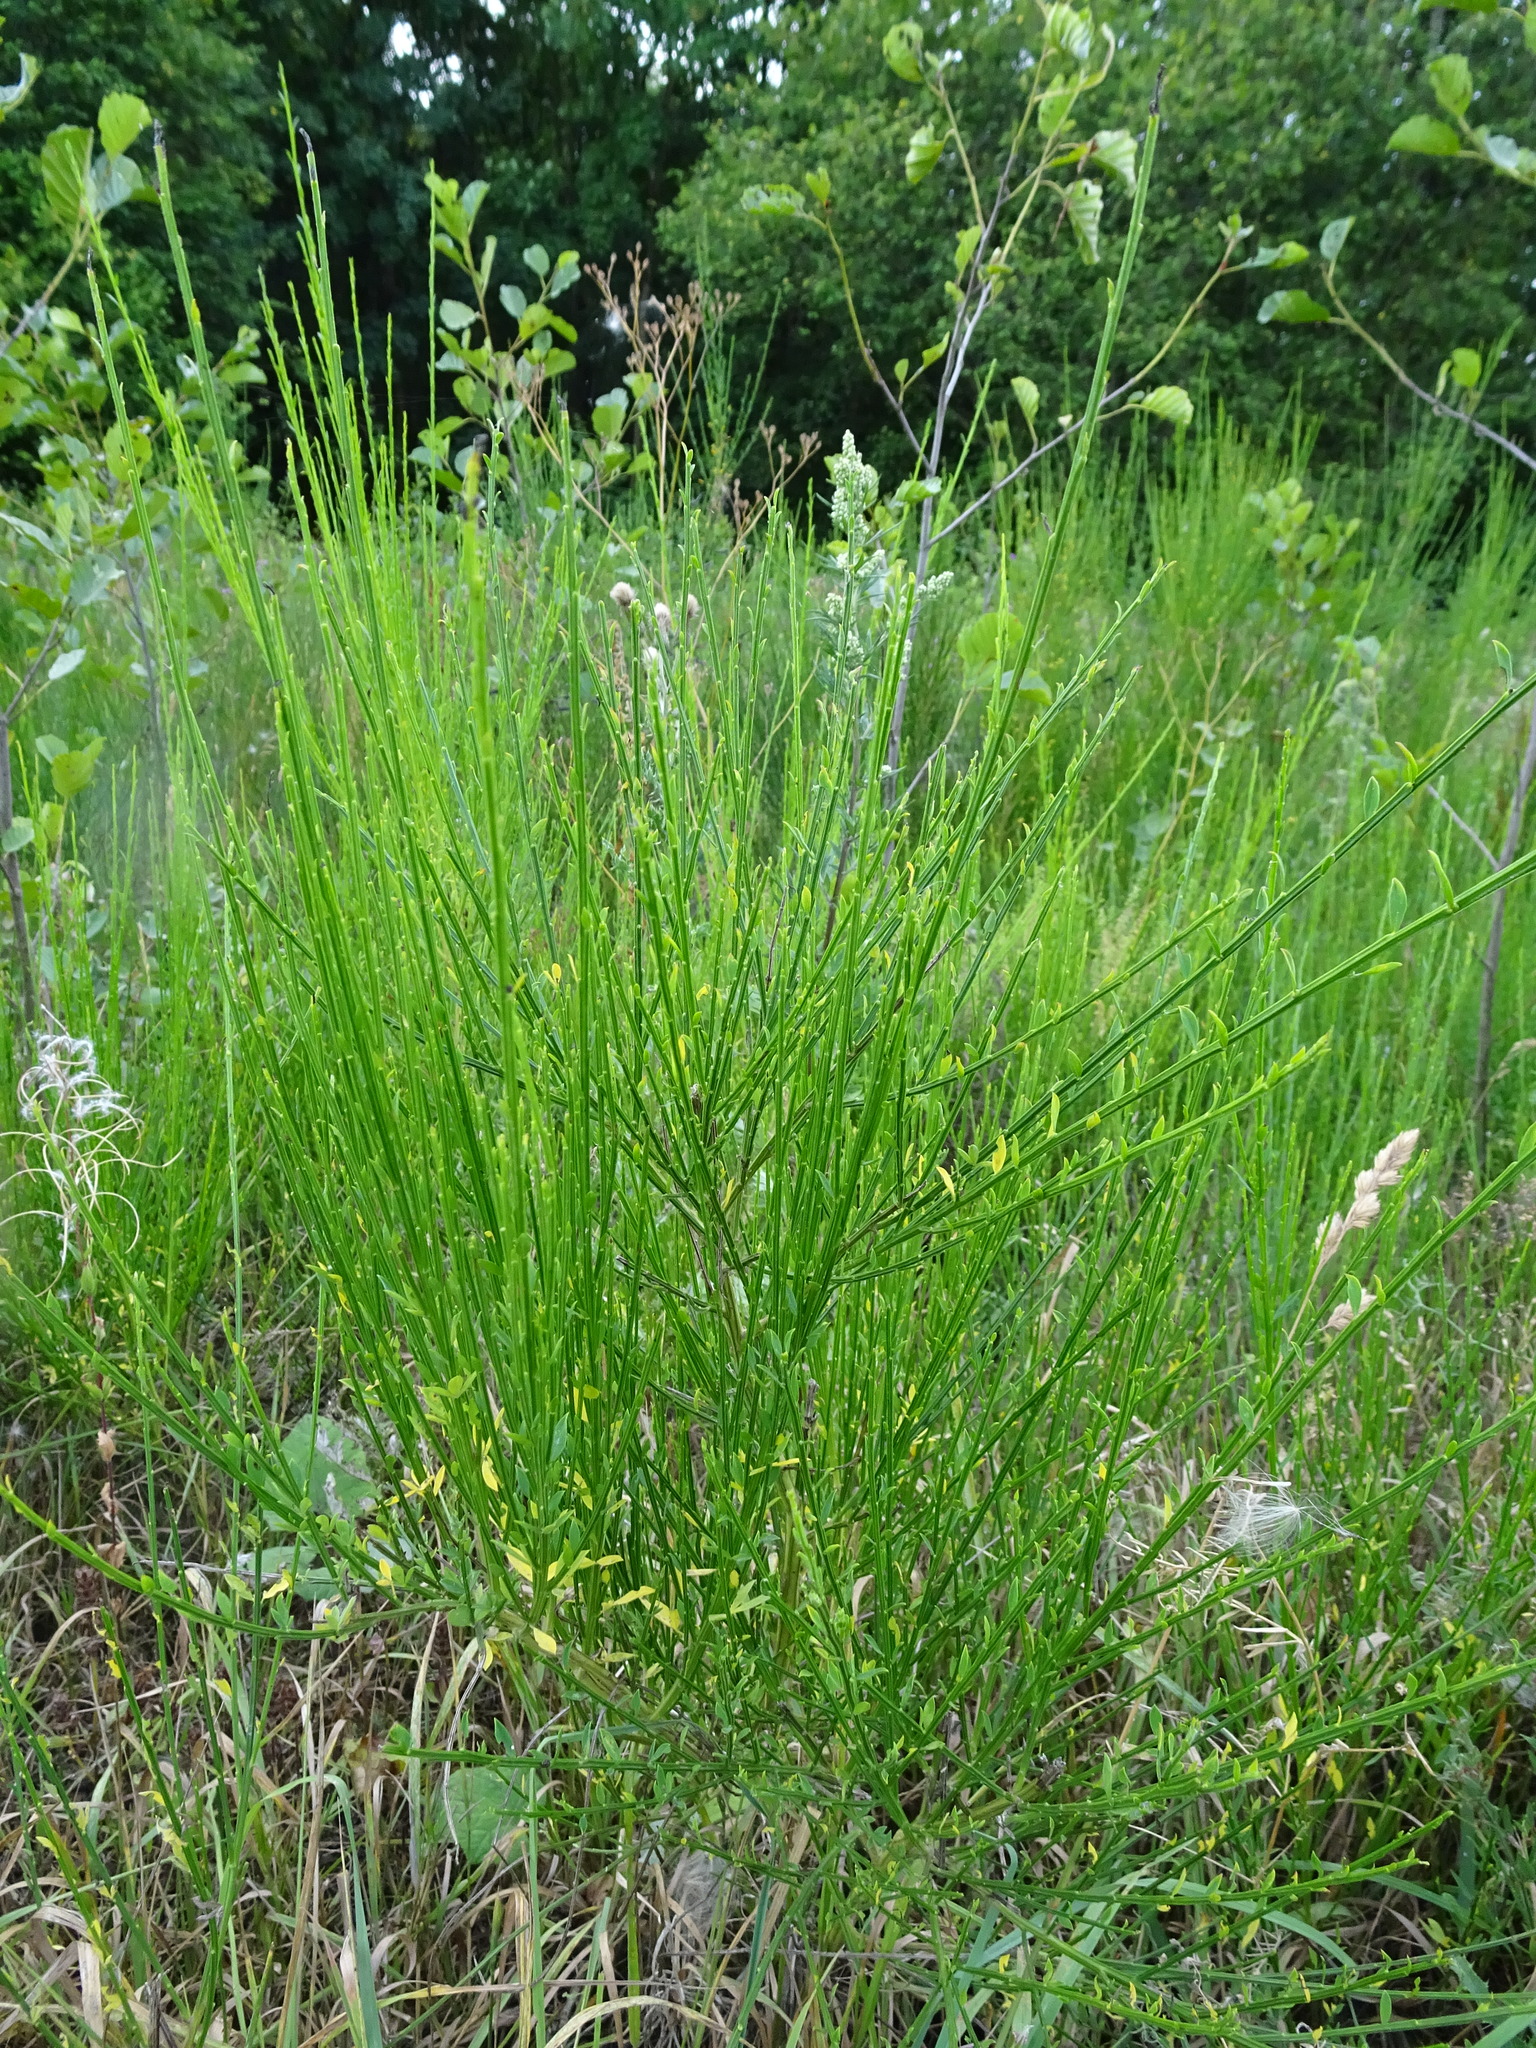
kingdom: Plantae
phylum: Tracheophyta
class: Magnoliopsida
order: Fabales
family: Fabaceae
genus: Cytisus
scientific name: Cytisus scoparius
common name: Scotch broom
